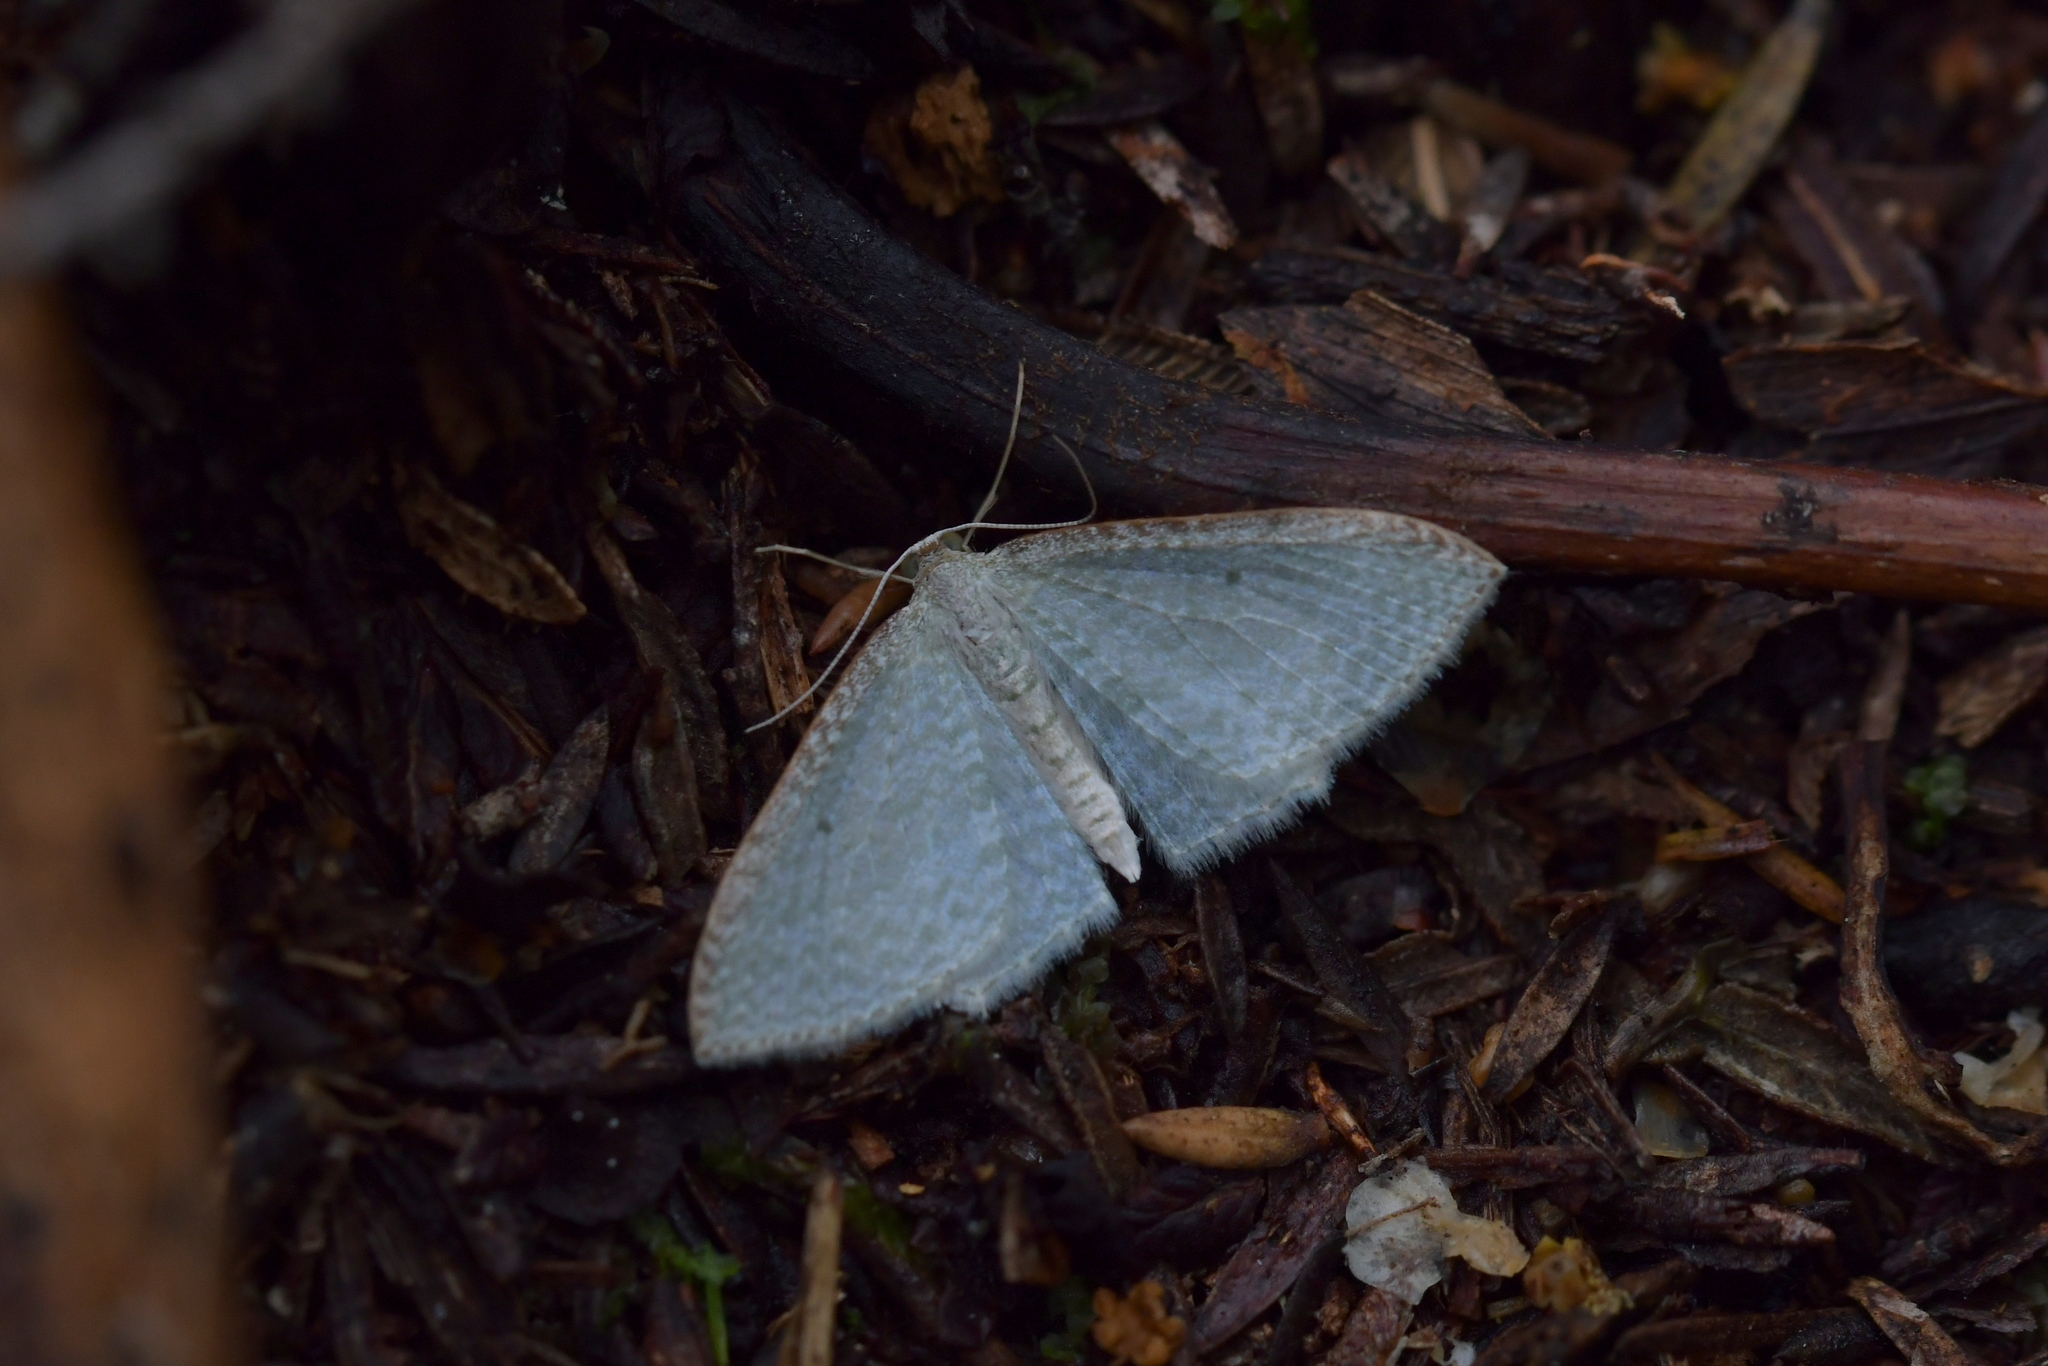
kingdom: Animalia
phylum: Arthropoda
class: Insecta
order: Lepidoptera
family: Geometridae
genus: Poecilasthena
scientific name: Poecilasthena pulchraria
